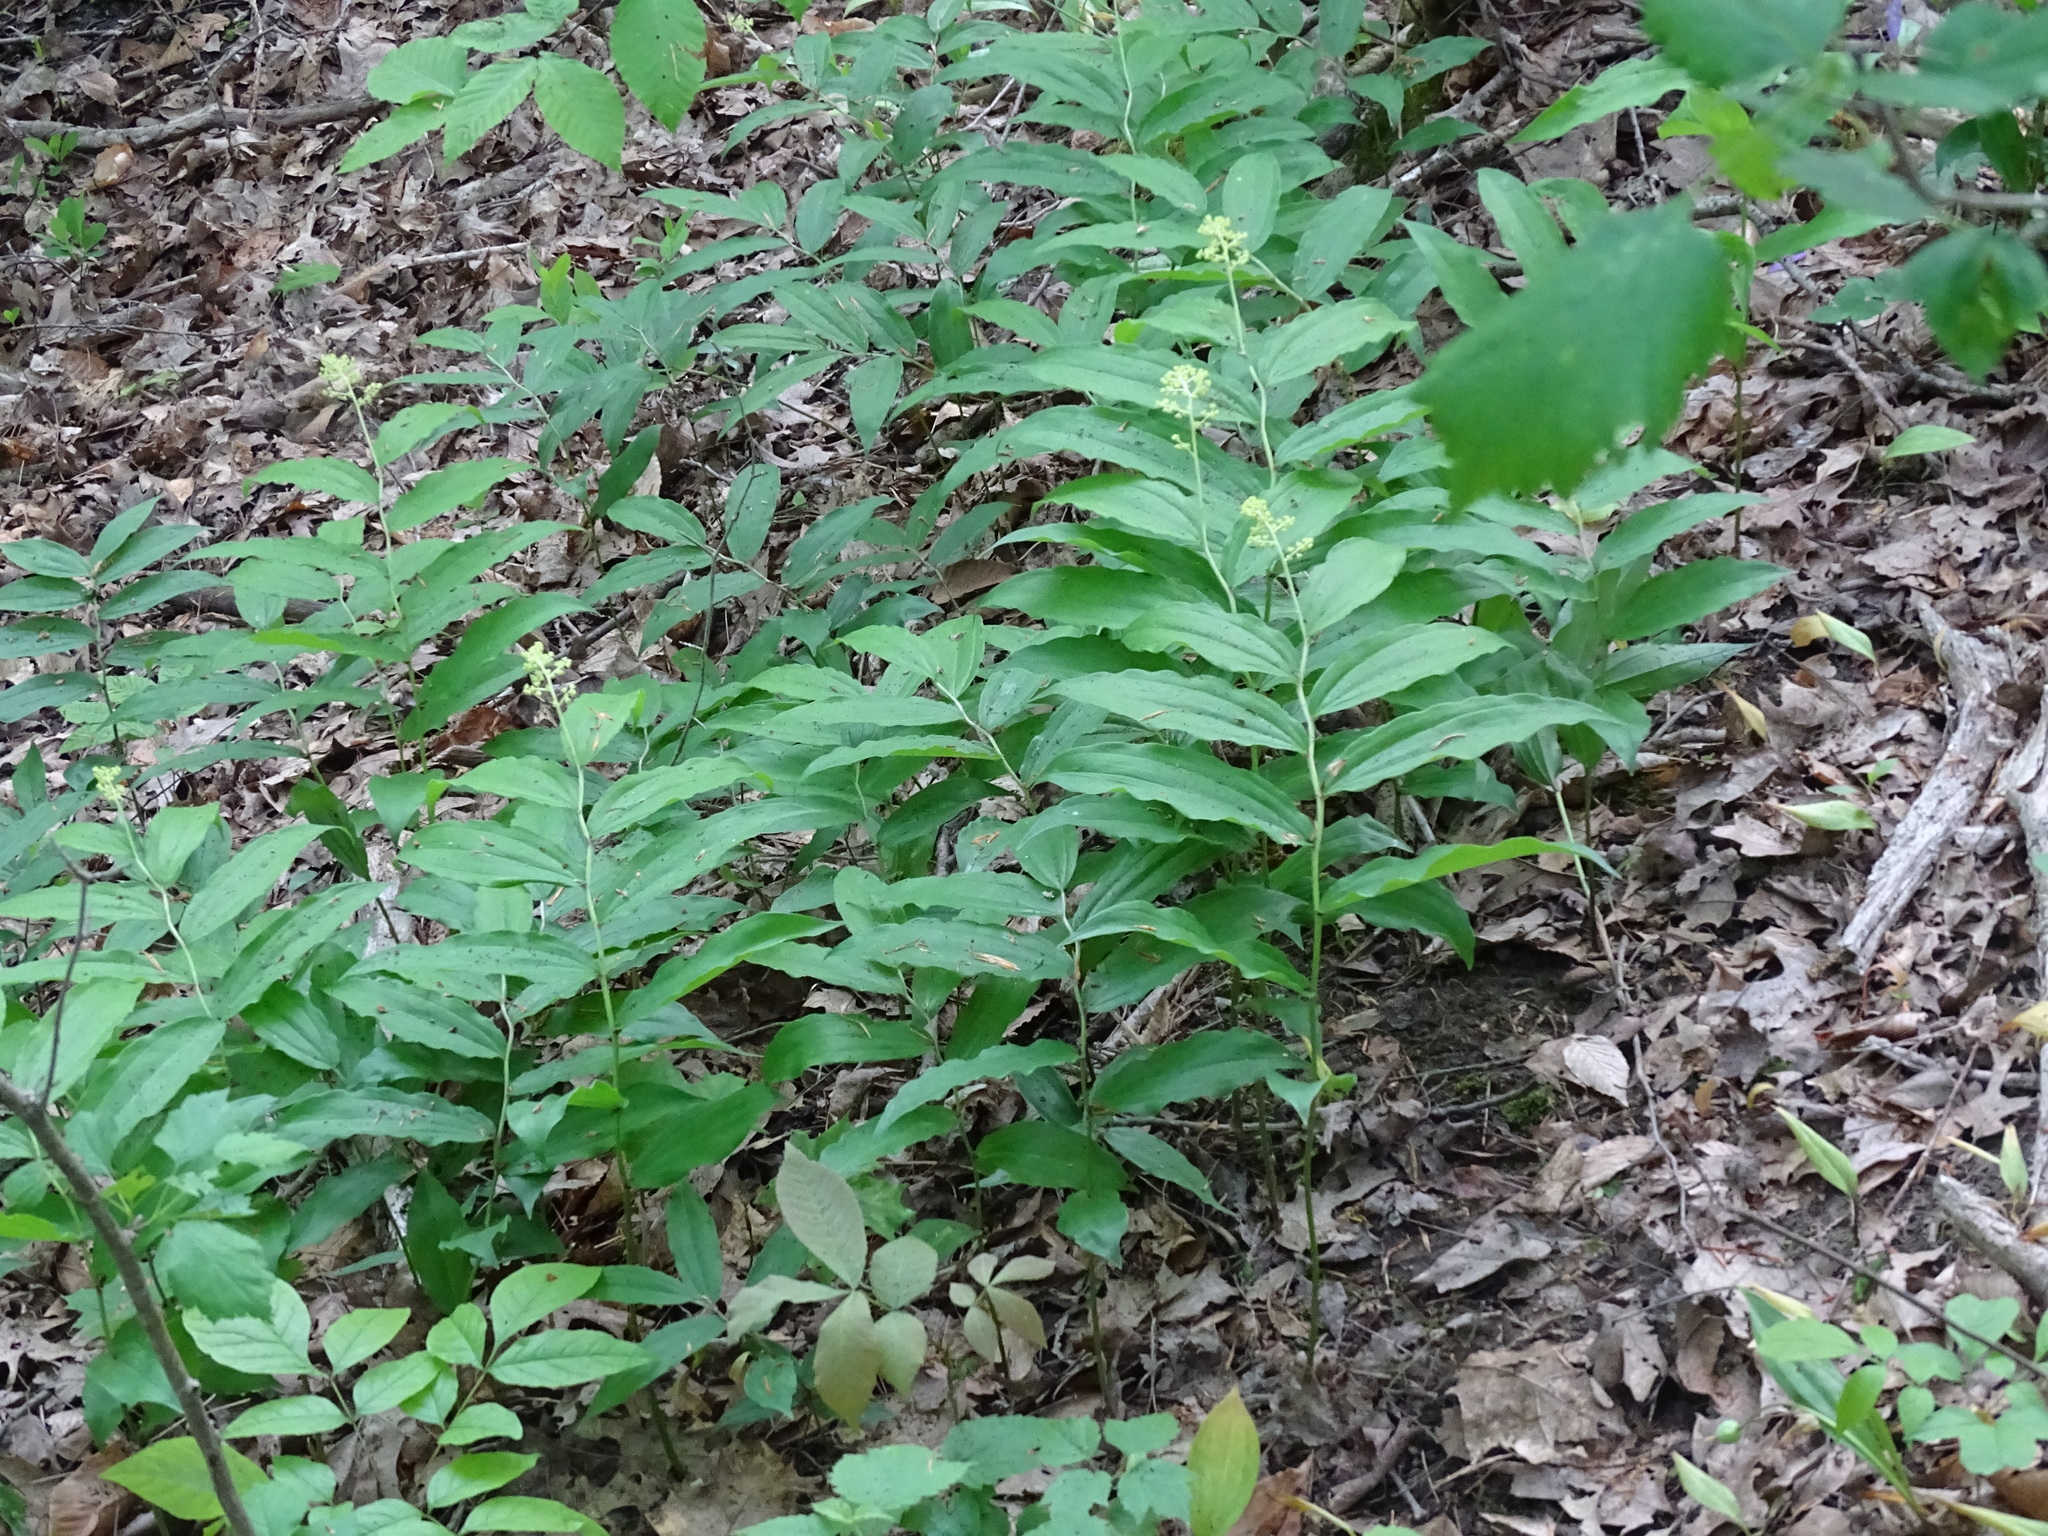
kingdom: Plantae
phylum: Tracheophyta
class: Liliopsida
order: Asparagales
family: Asparagaceae
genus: Maianthemum
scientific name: Maianthemum racemosum
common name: False spikenard
